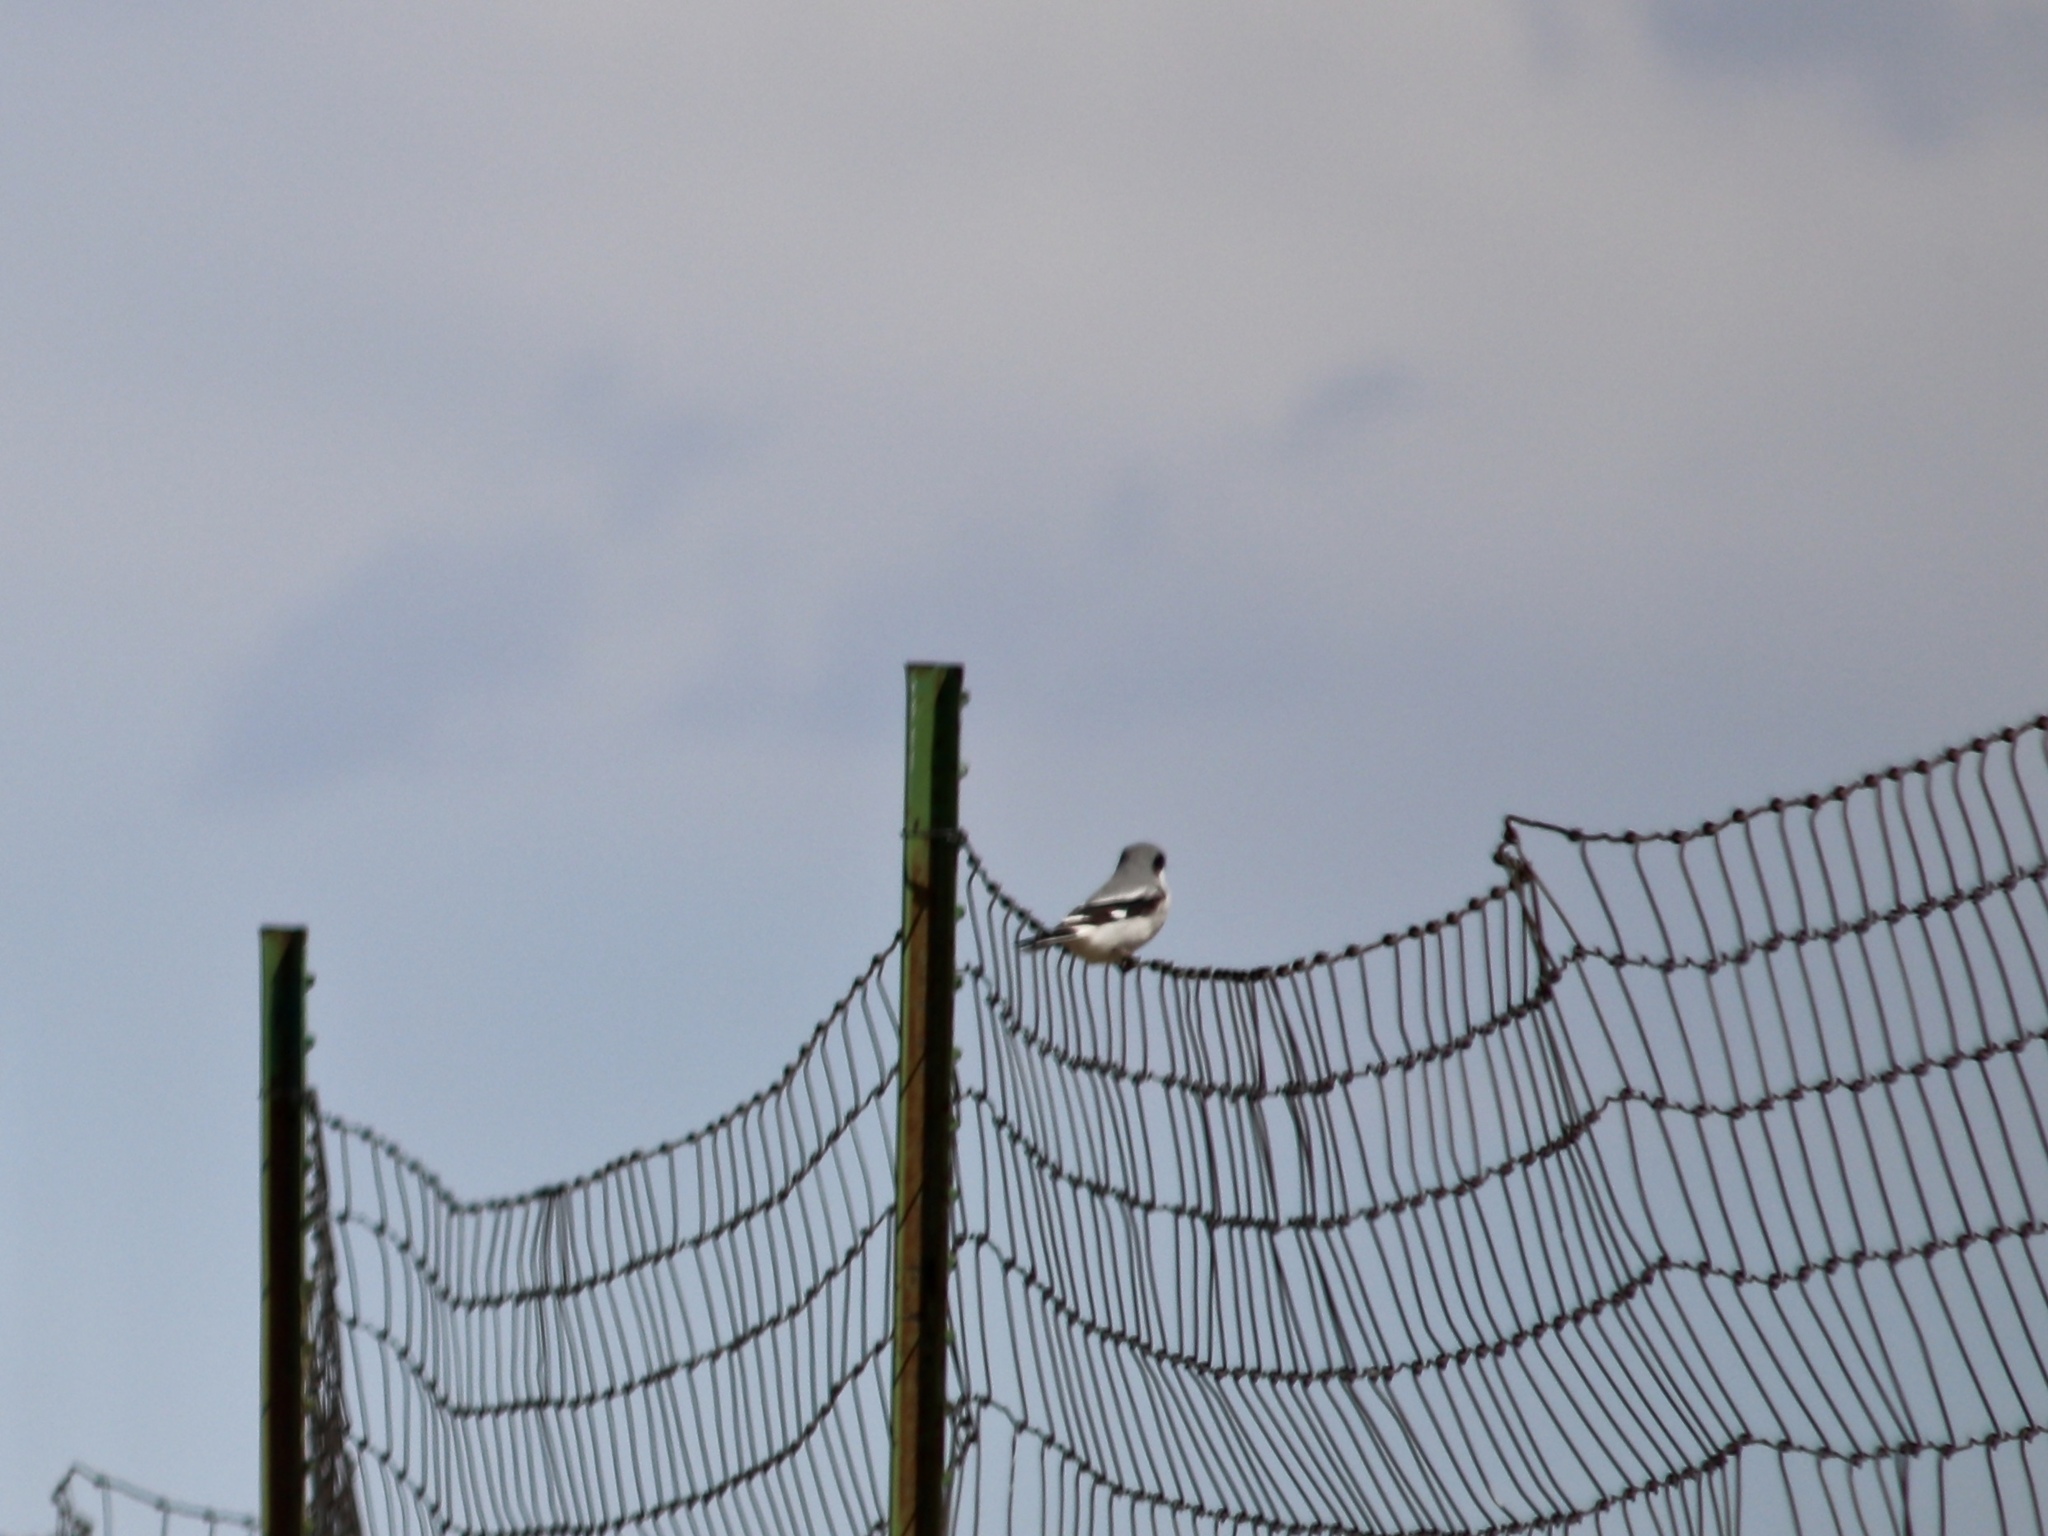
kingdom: Animalia
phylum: Chordata
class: Aves
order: Passeriformes
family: Laniidae
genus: Lanius
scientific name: Lanius ludovicianus
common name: Loggerhead shrike
